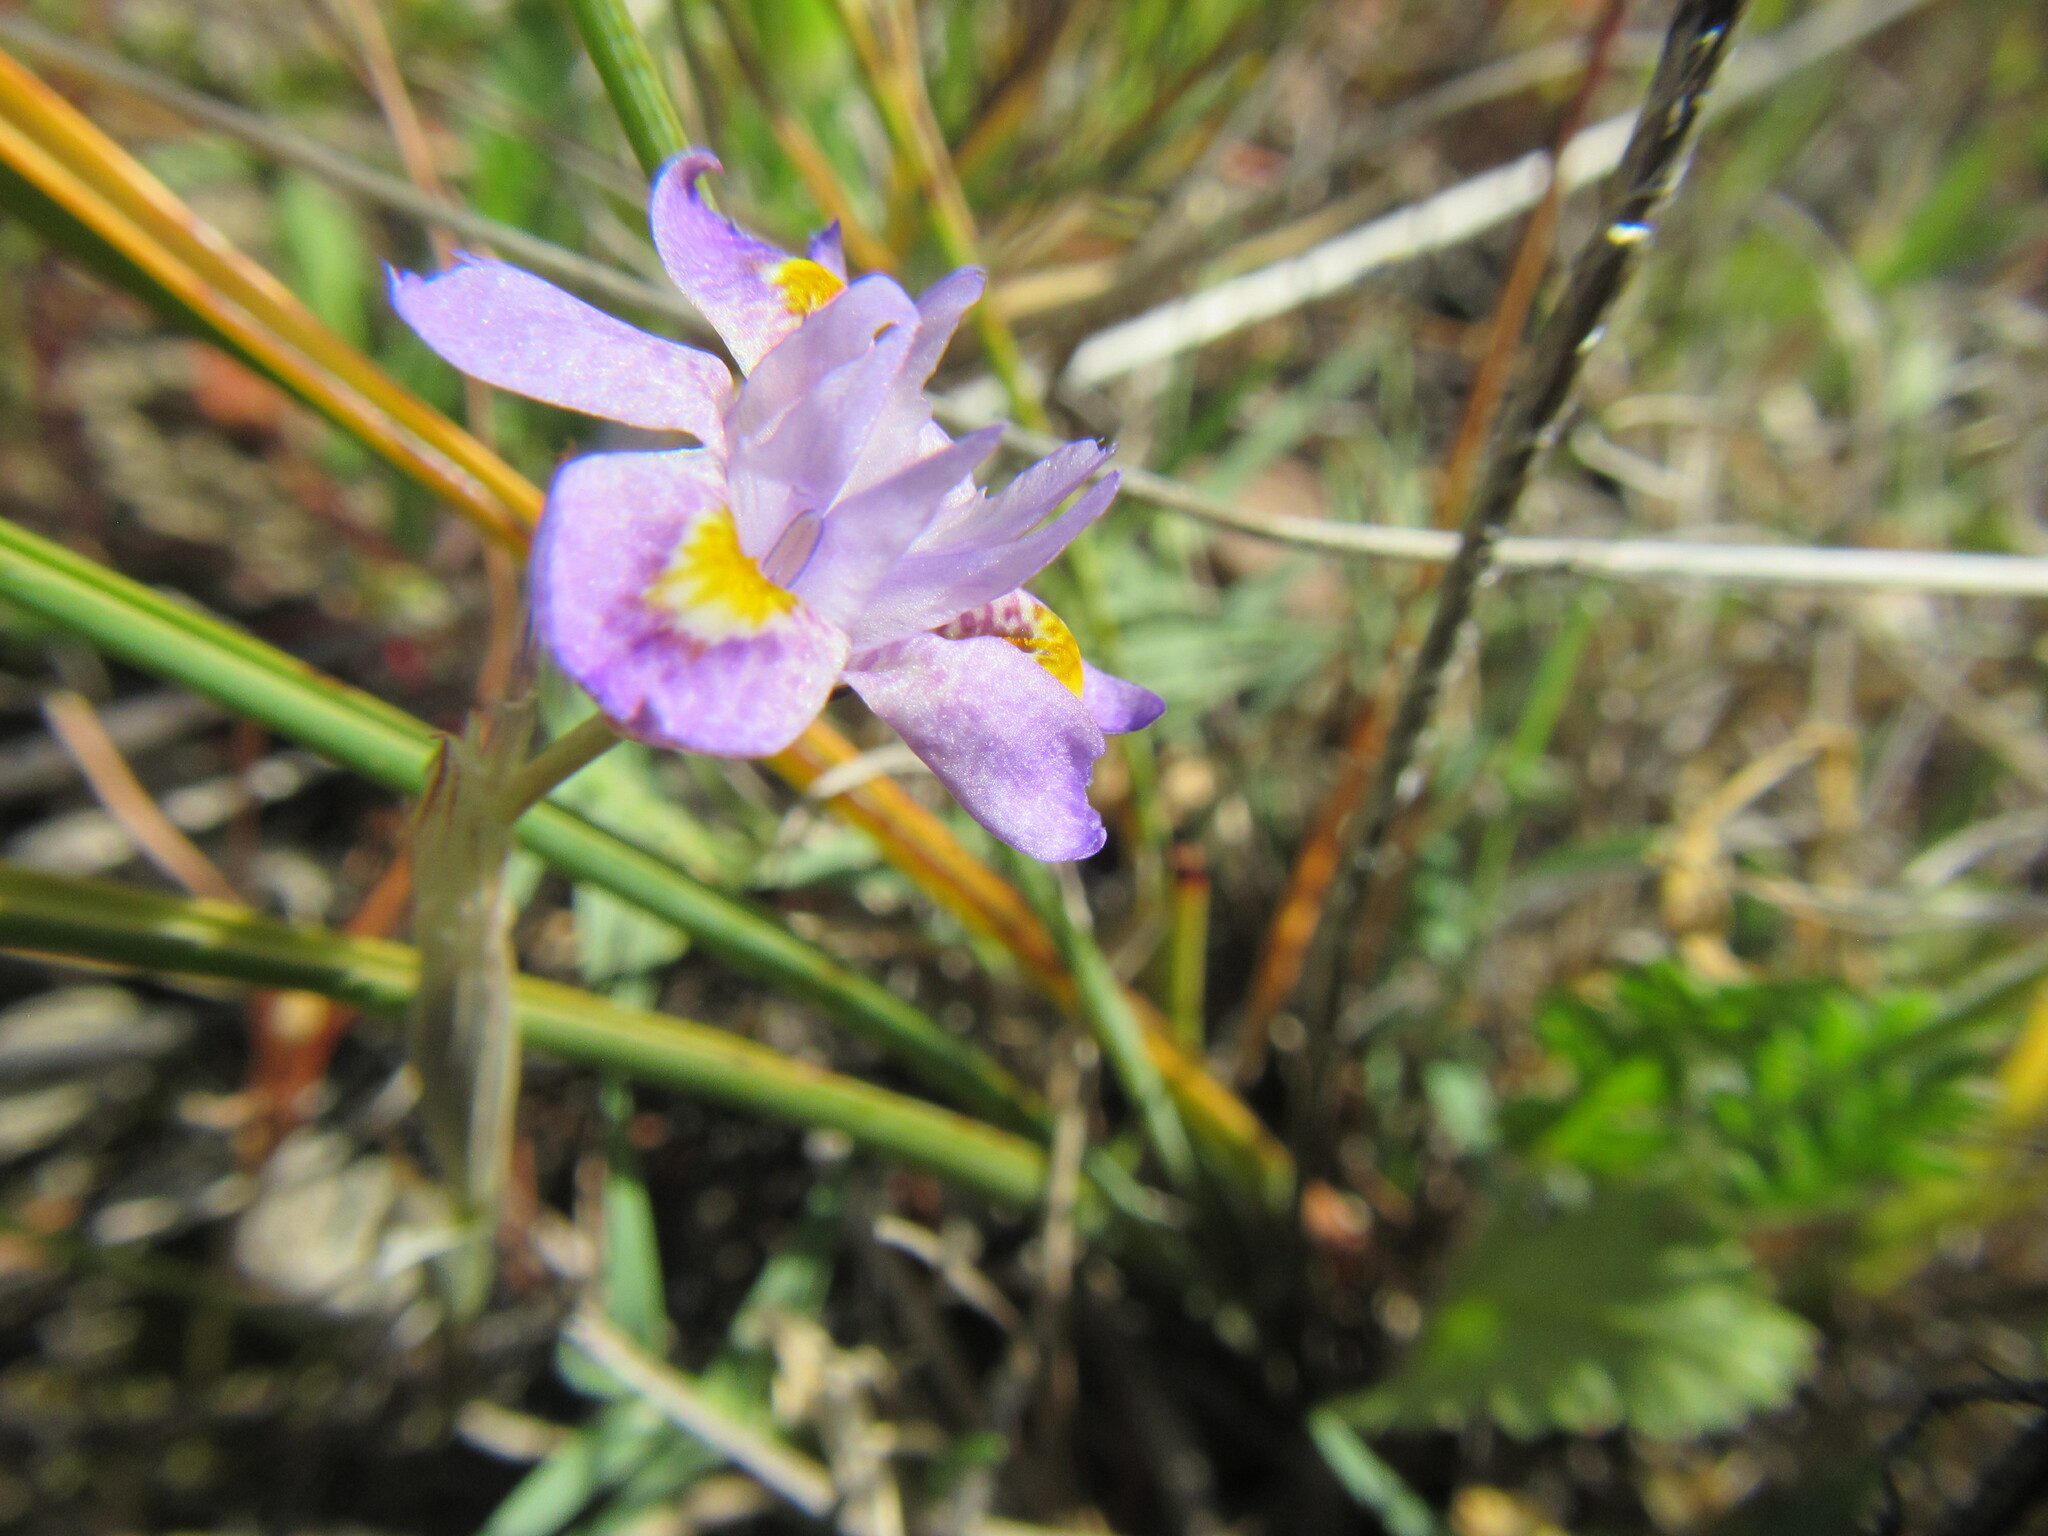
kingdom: Plantae
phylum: Tracheophyta
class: Liliopsida
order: Asparagales
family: Iridaceae
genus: Moraea
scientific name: Moraea setifolia
